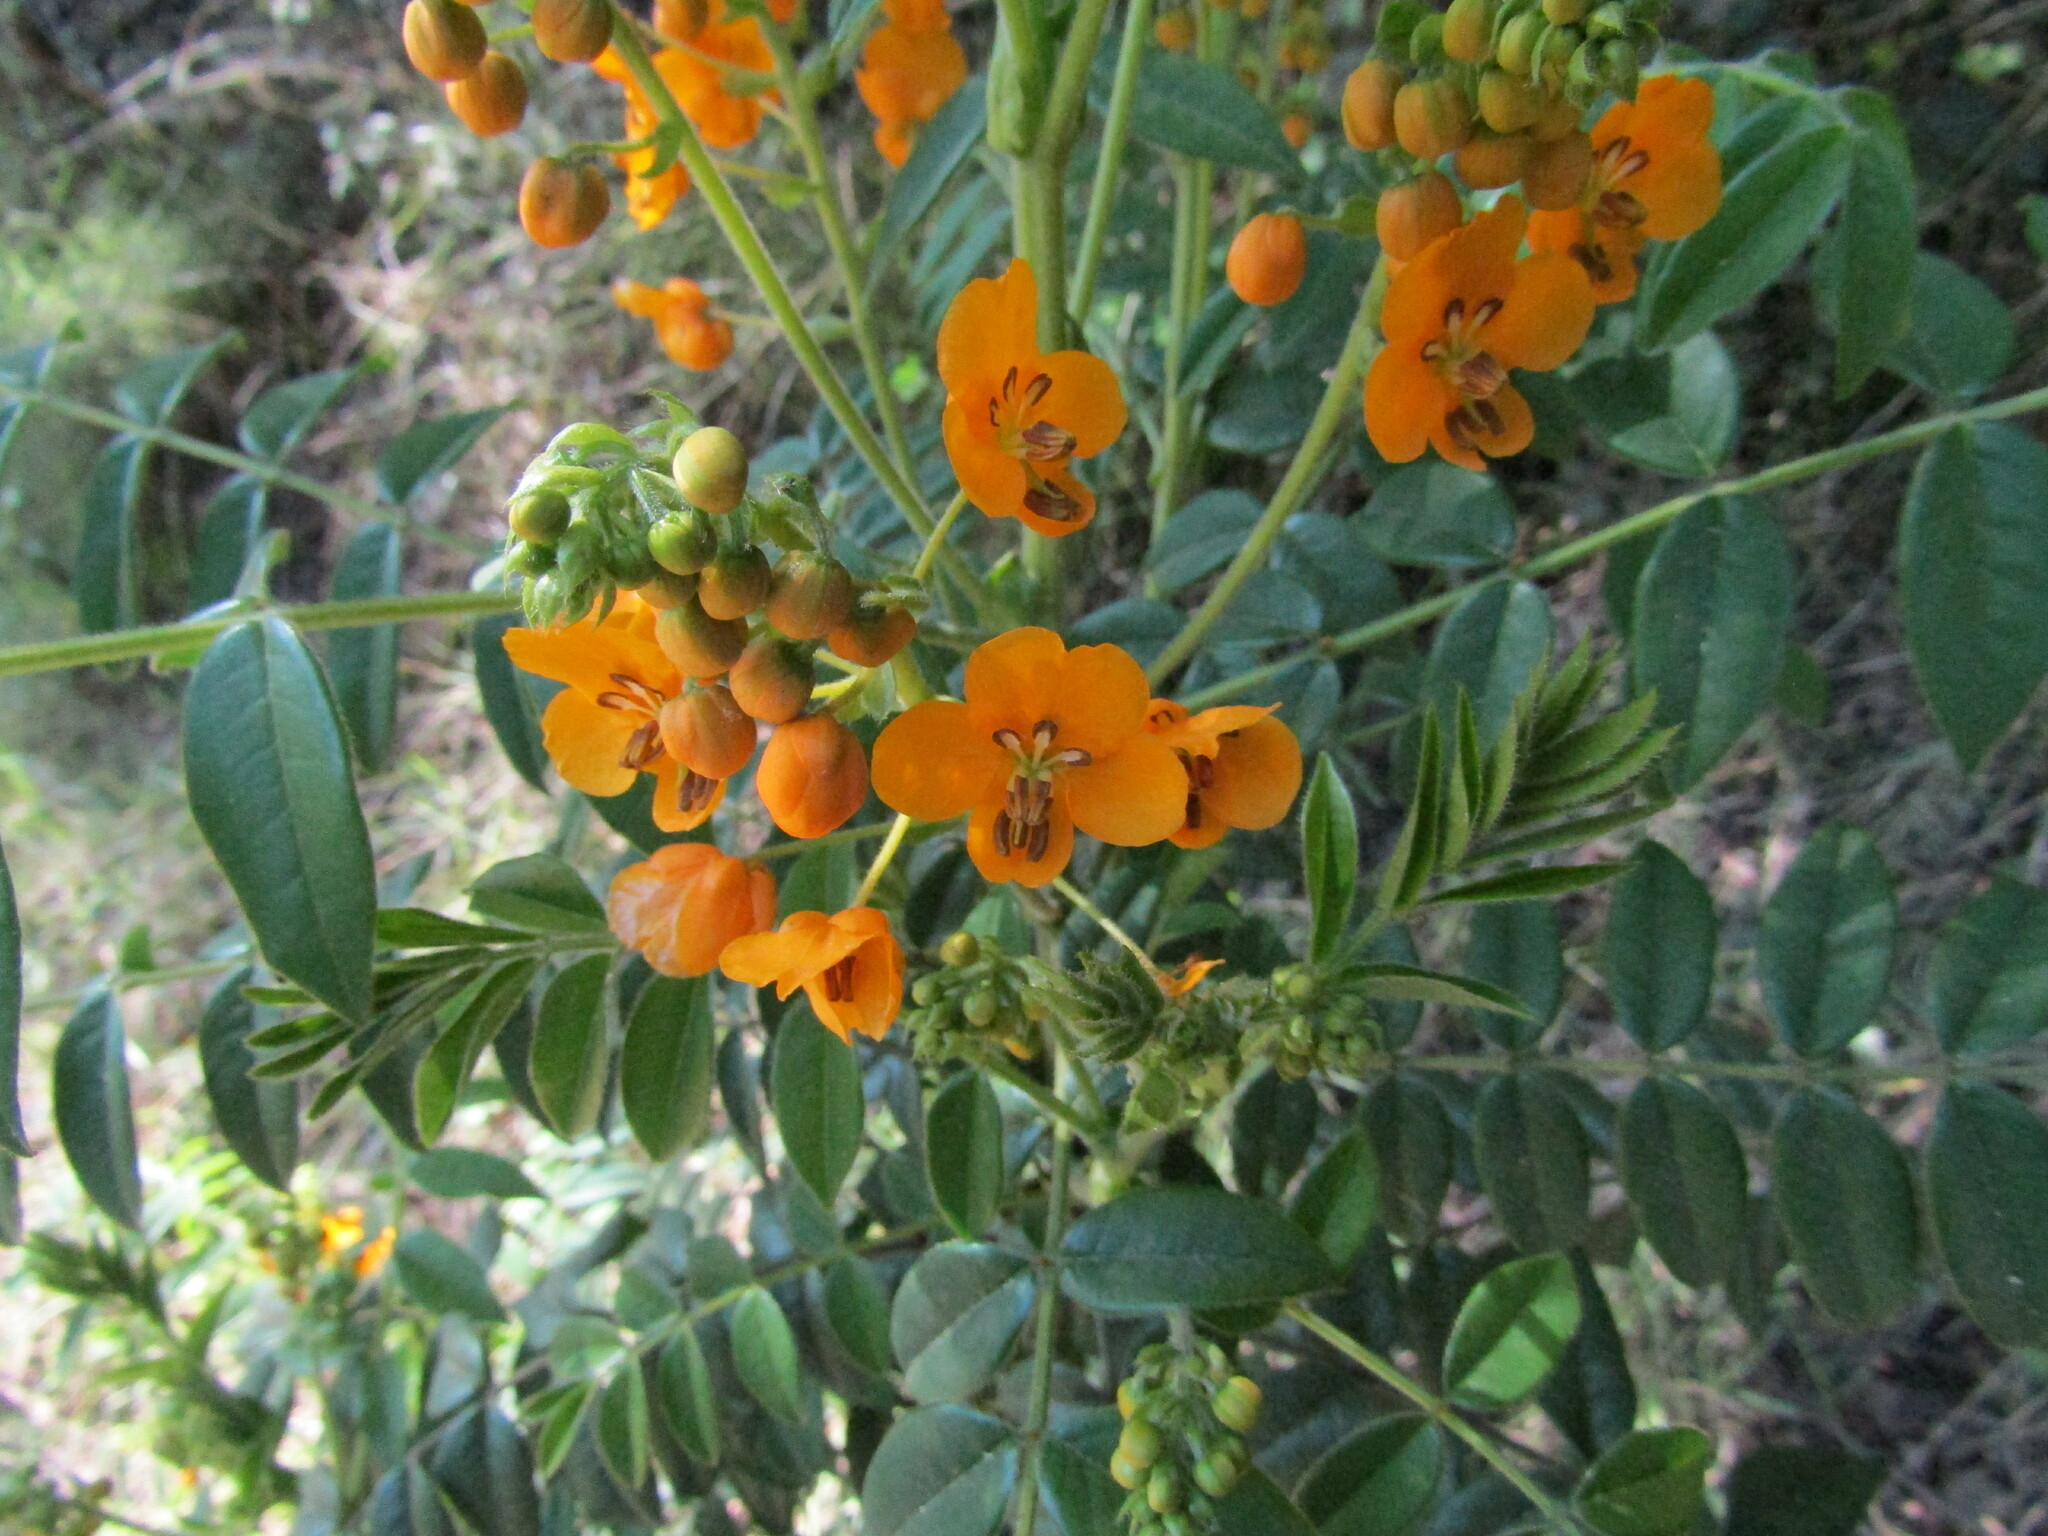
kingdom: Plantae
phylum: Tracheophyta
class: Magnoliopsida
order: Fabales
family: Fabaceae
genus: Senna
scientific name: Senna stipulacea
